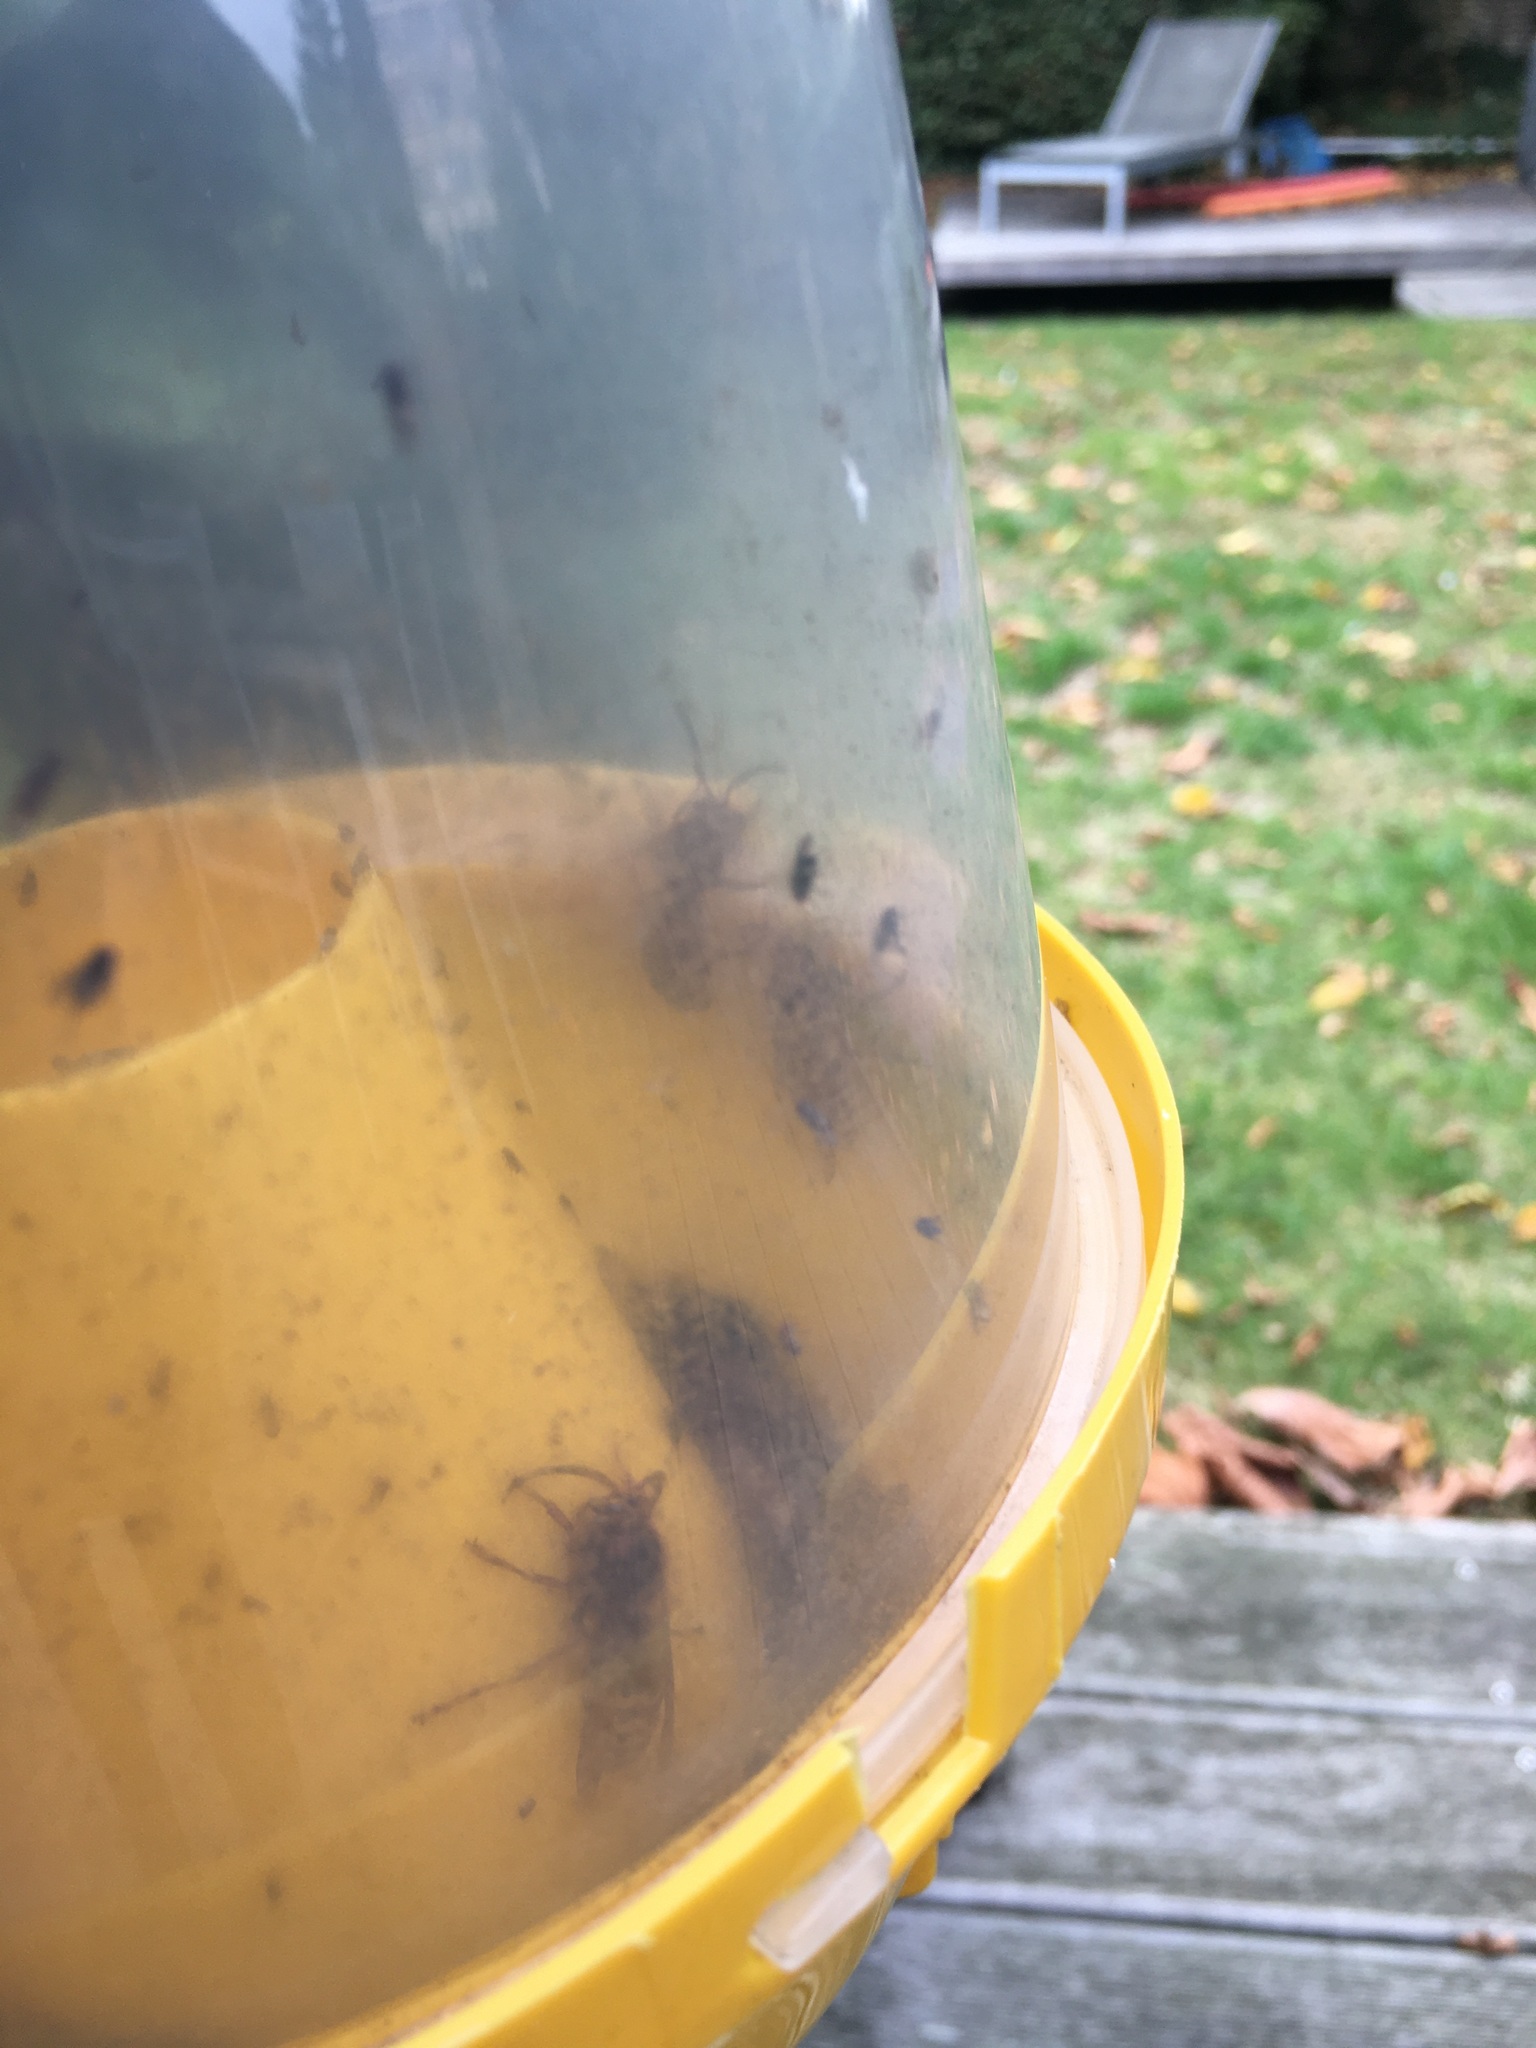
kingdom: Animalia
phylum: Arthropoda
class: Insecta
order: Hymenoptera
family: Vespidae
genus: Vespa
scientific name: Vespa crabro
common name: Hornet
